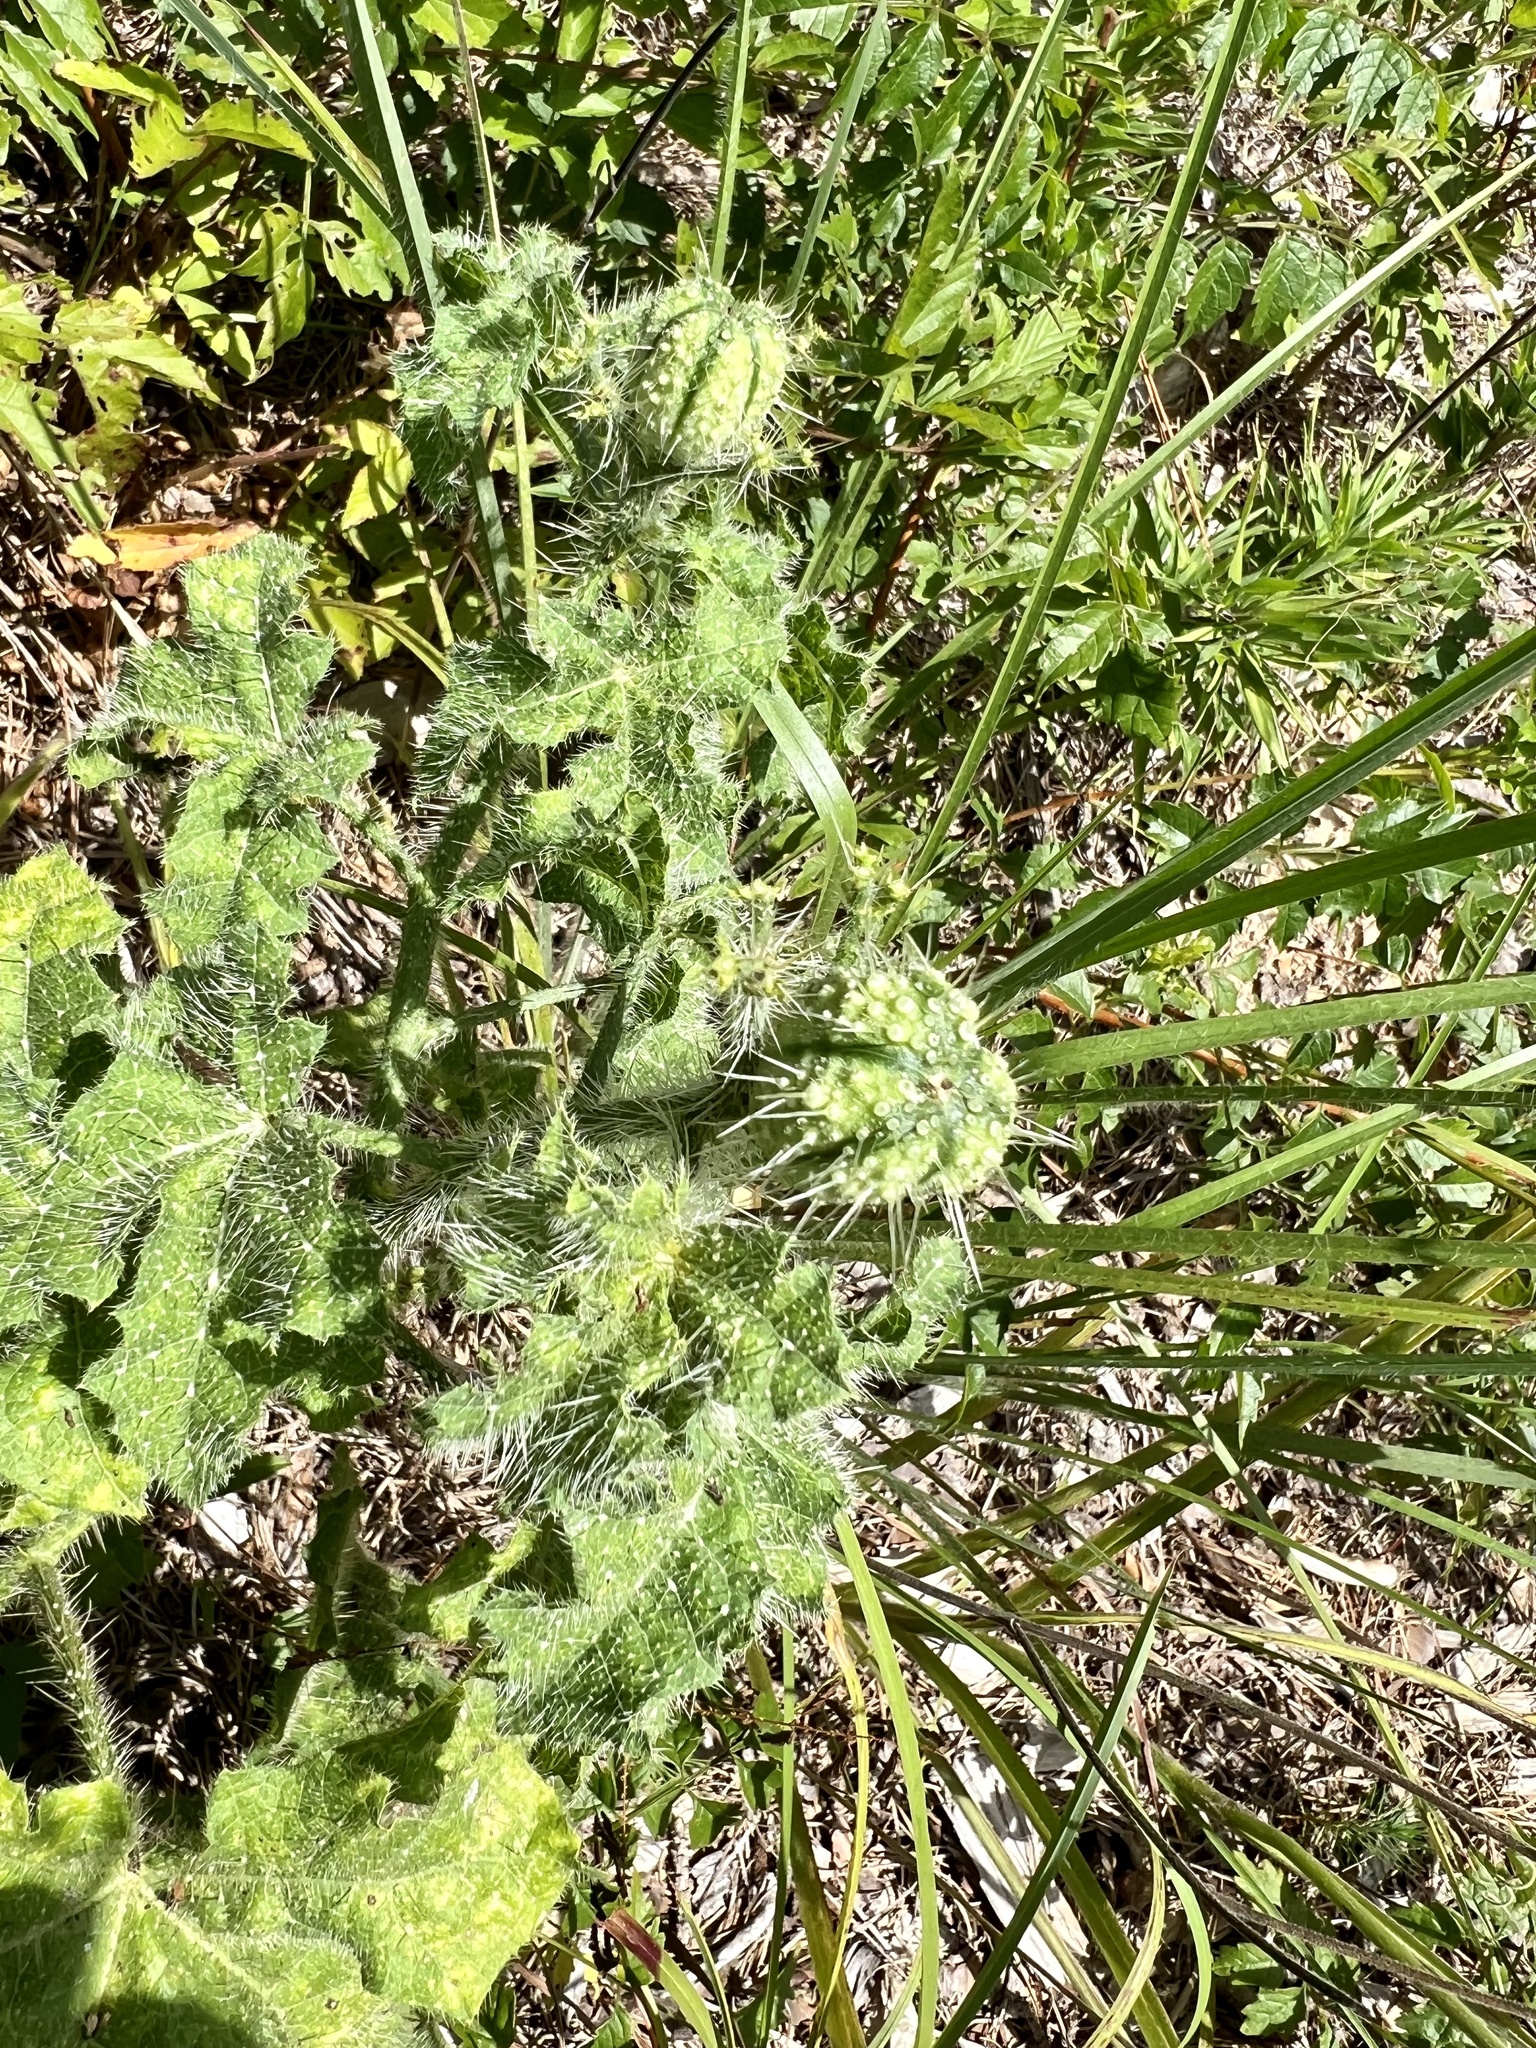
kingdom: Plantae
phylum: Tracheophyta
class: Magnoliopsida
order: Malpighiales
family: Euphorbiaceae
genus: Cnidoscolus
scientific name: Cnidoscolus texanus
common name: Texas bull-nettle
